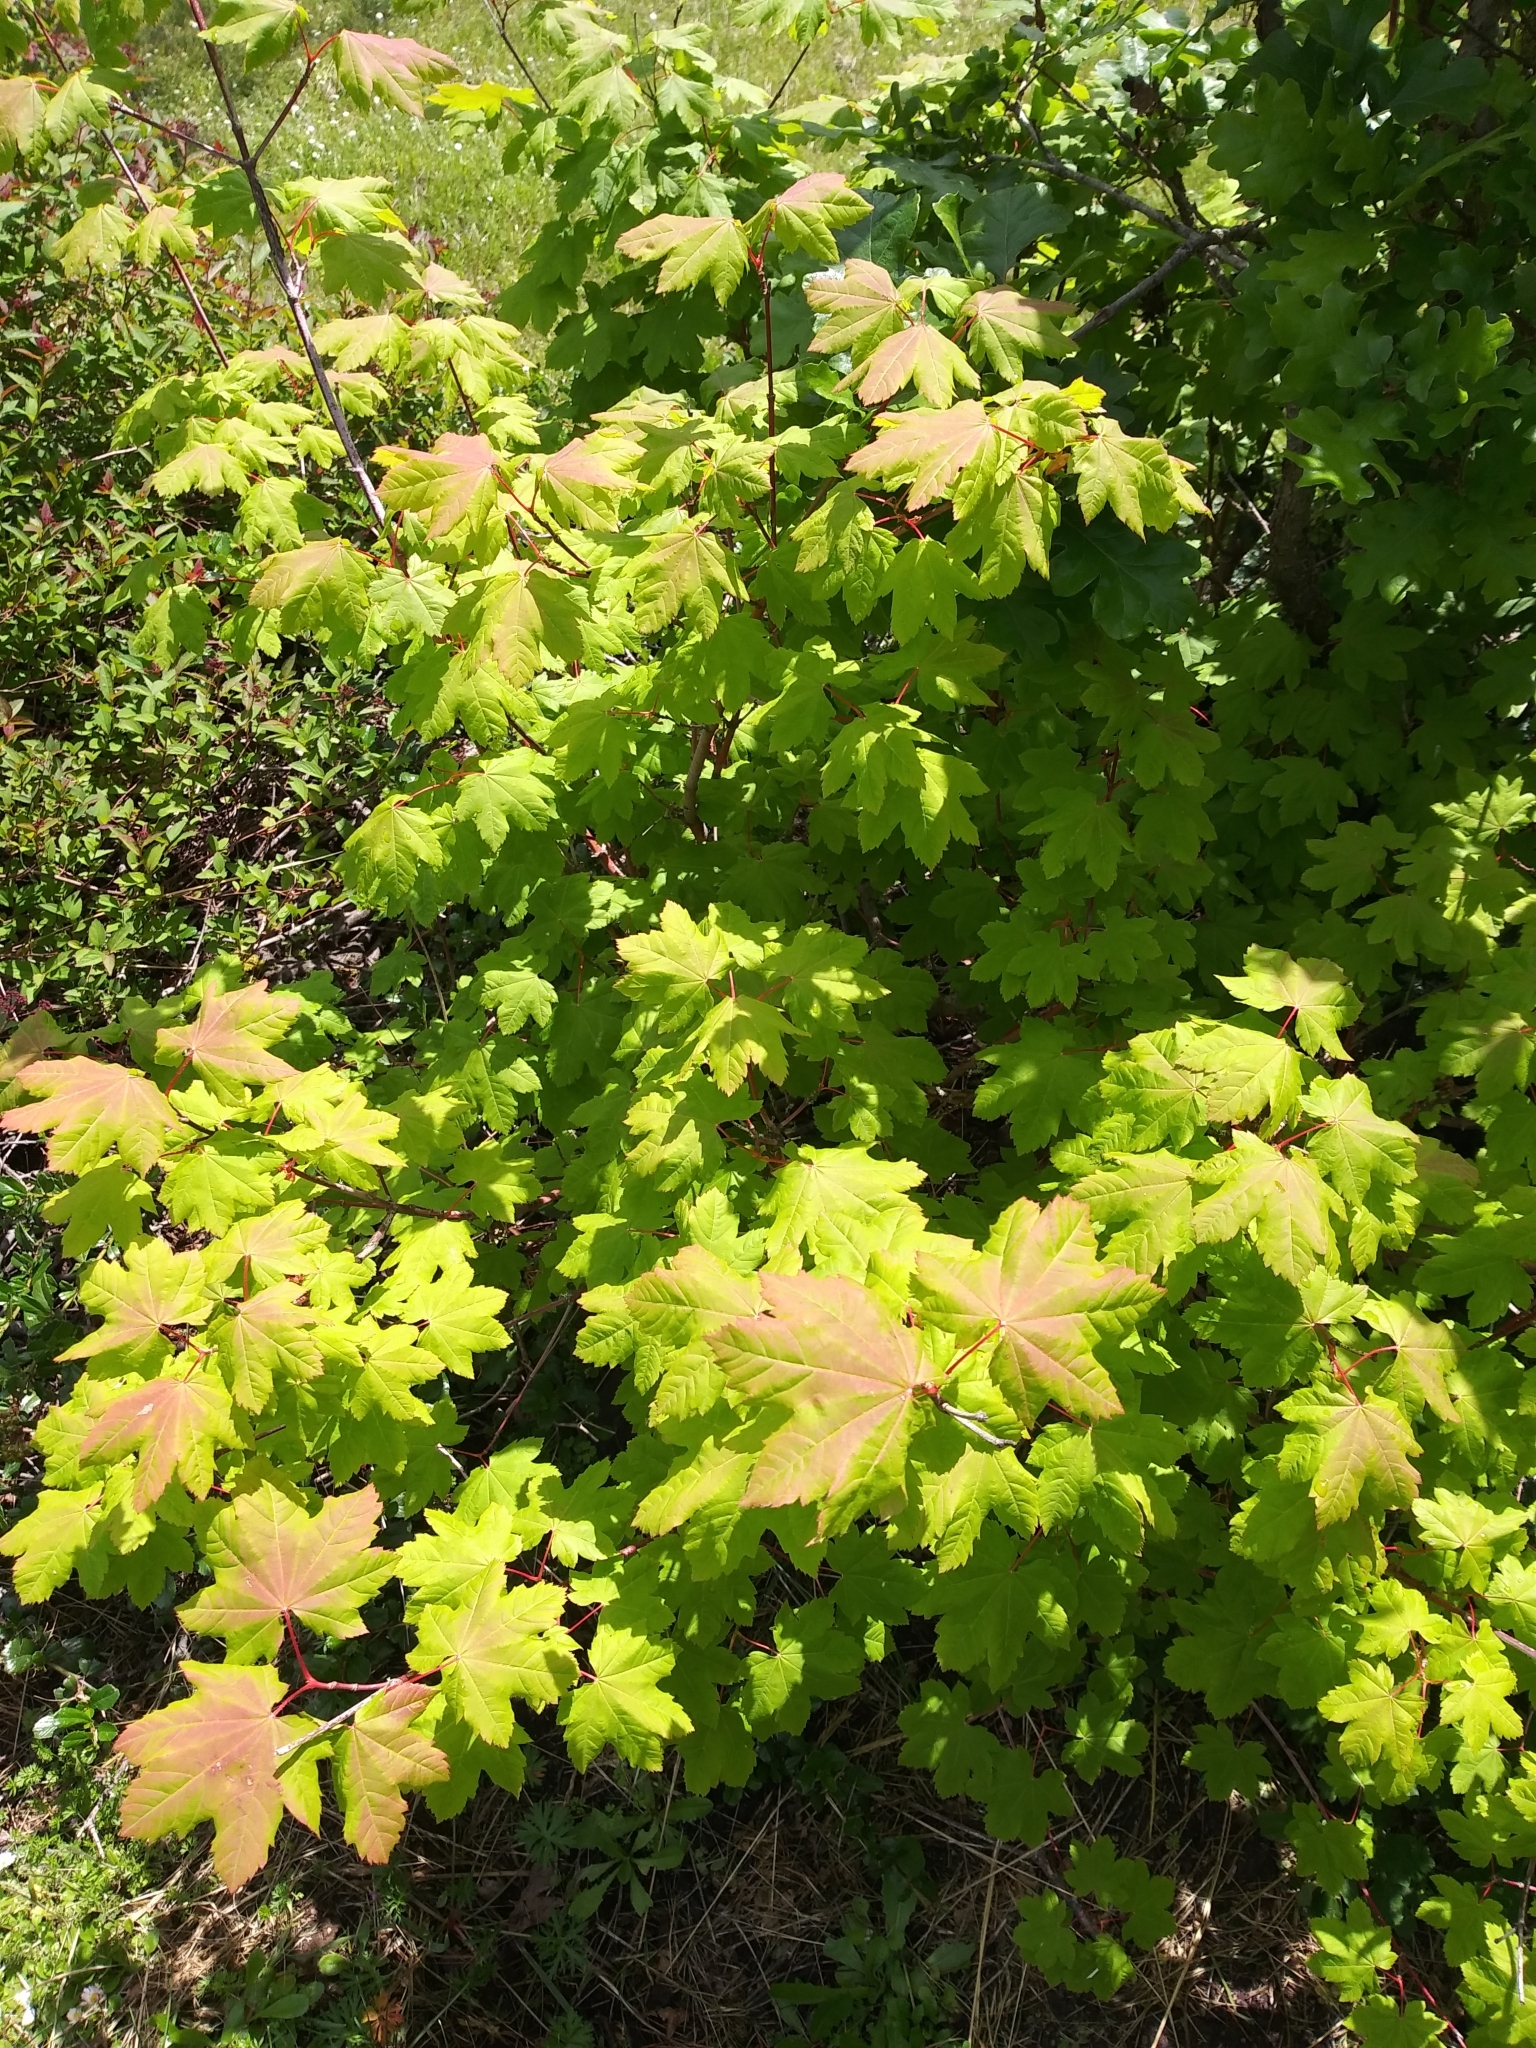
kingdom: Plantae
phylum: Tracheophyta
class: Magnoliopsida
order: Sapindales
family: Sapindaceae
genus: Acer
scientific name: Acer circinatum
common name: Vine maple
